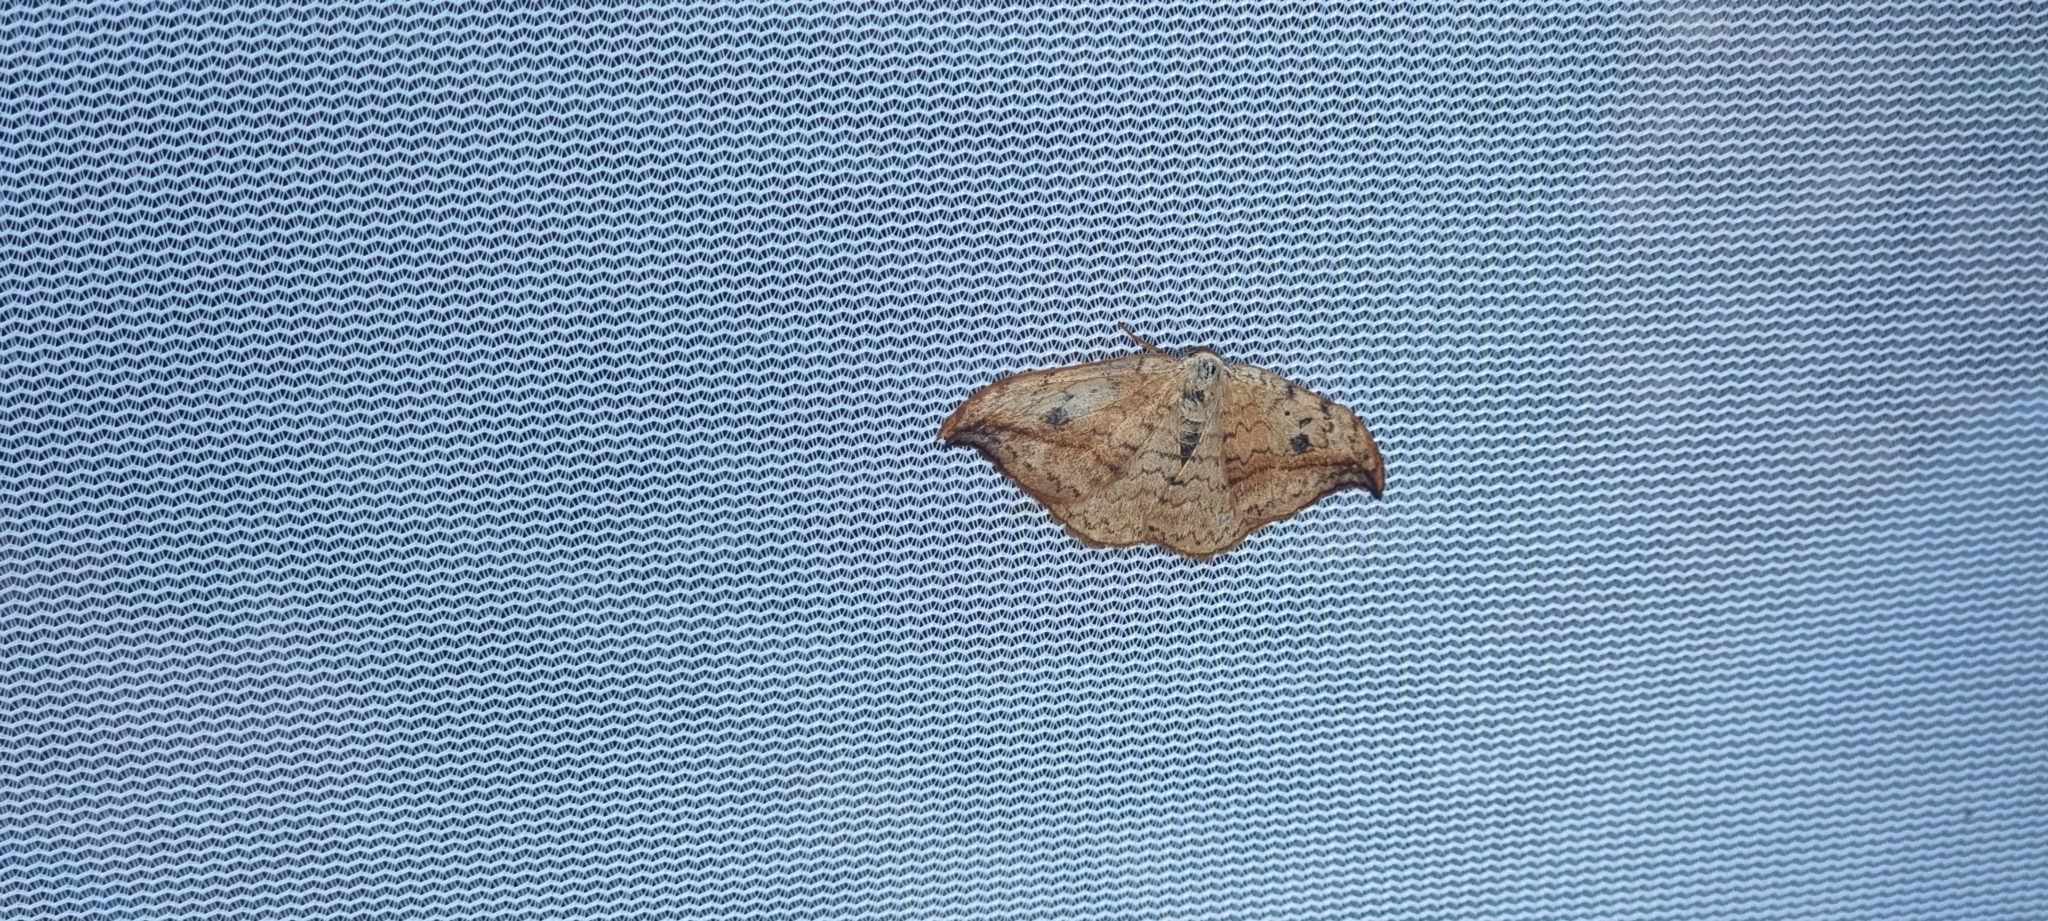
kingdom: Animalia
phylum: Arthropoda
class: Insecta
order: Lepidoptera
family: Drepanidae
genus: Drepana
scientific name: Drepana falcataria
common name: Pebble hook-tip
